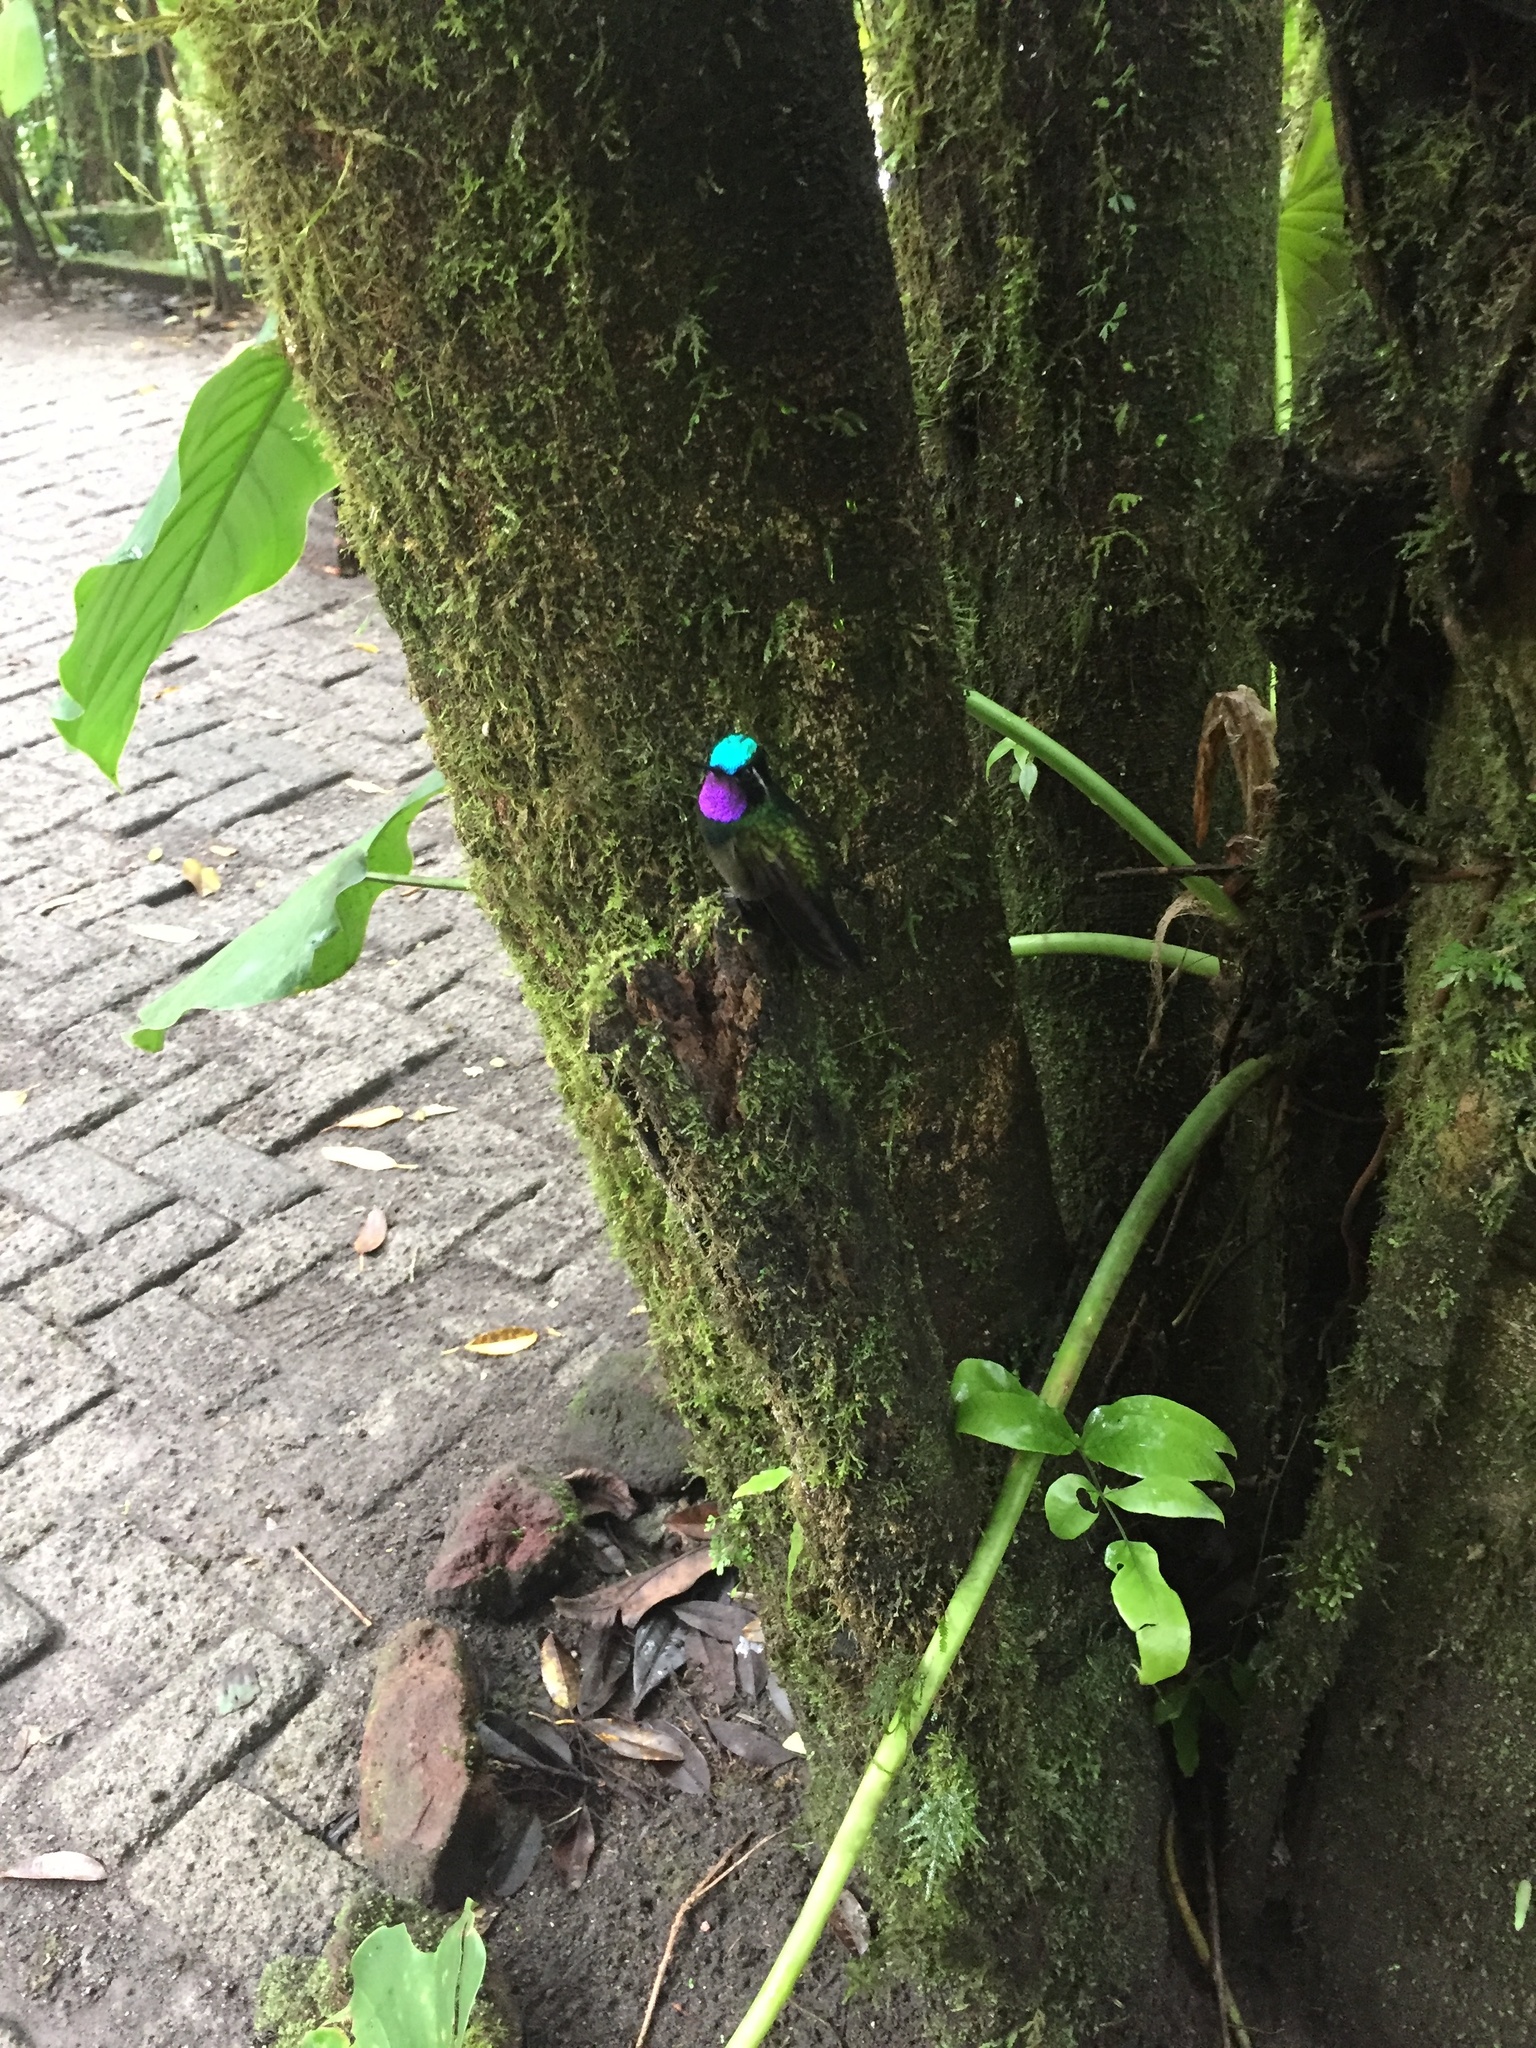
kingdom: Animalia
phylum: Chordata
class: Aves
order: Apodiformes
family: Trochilidae
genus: Lampornis
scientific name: Lampornis calolaemus
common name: Purple-throated mountain-gem
